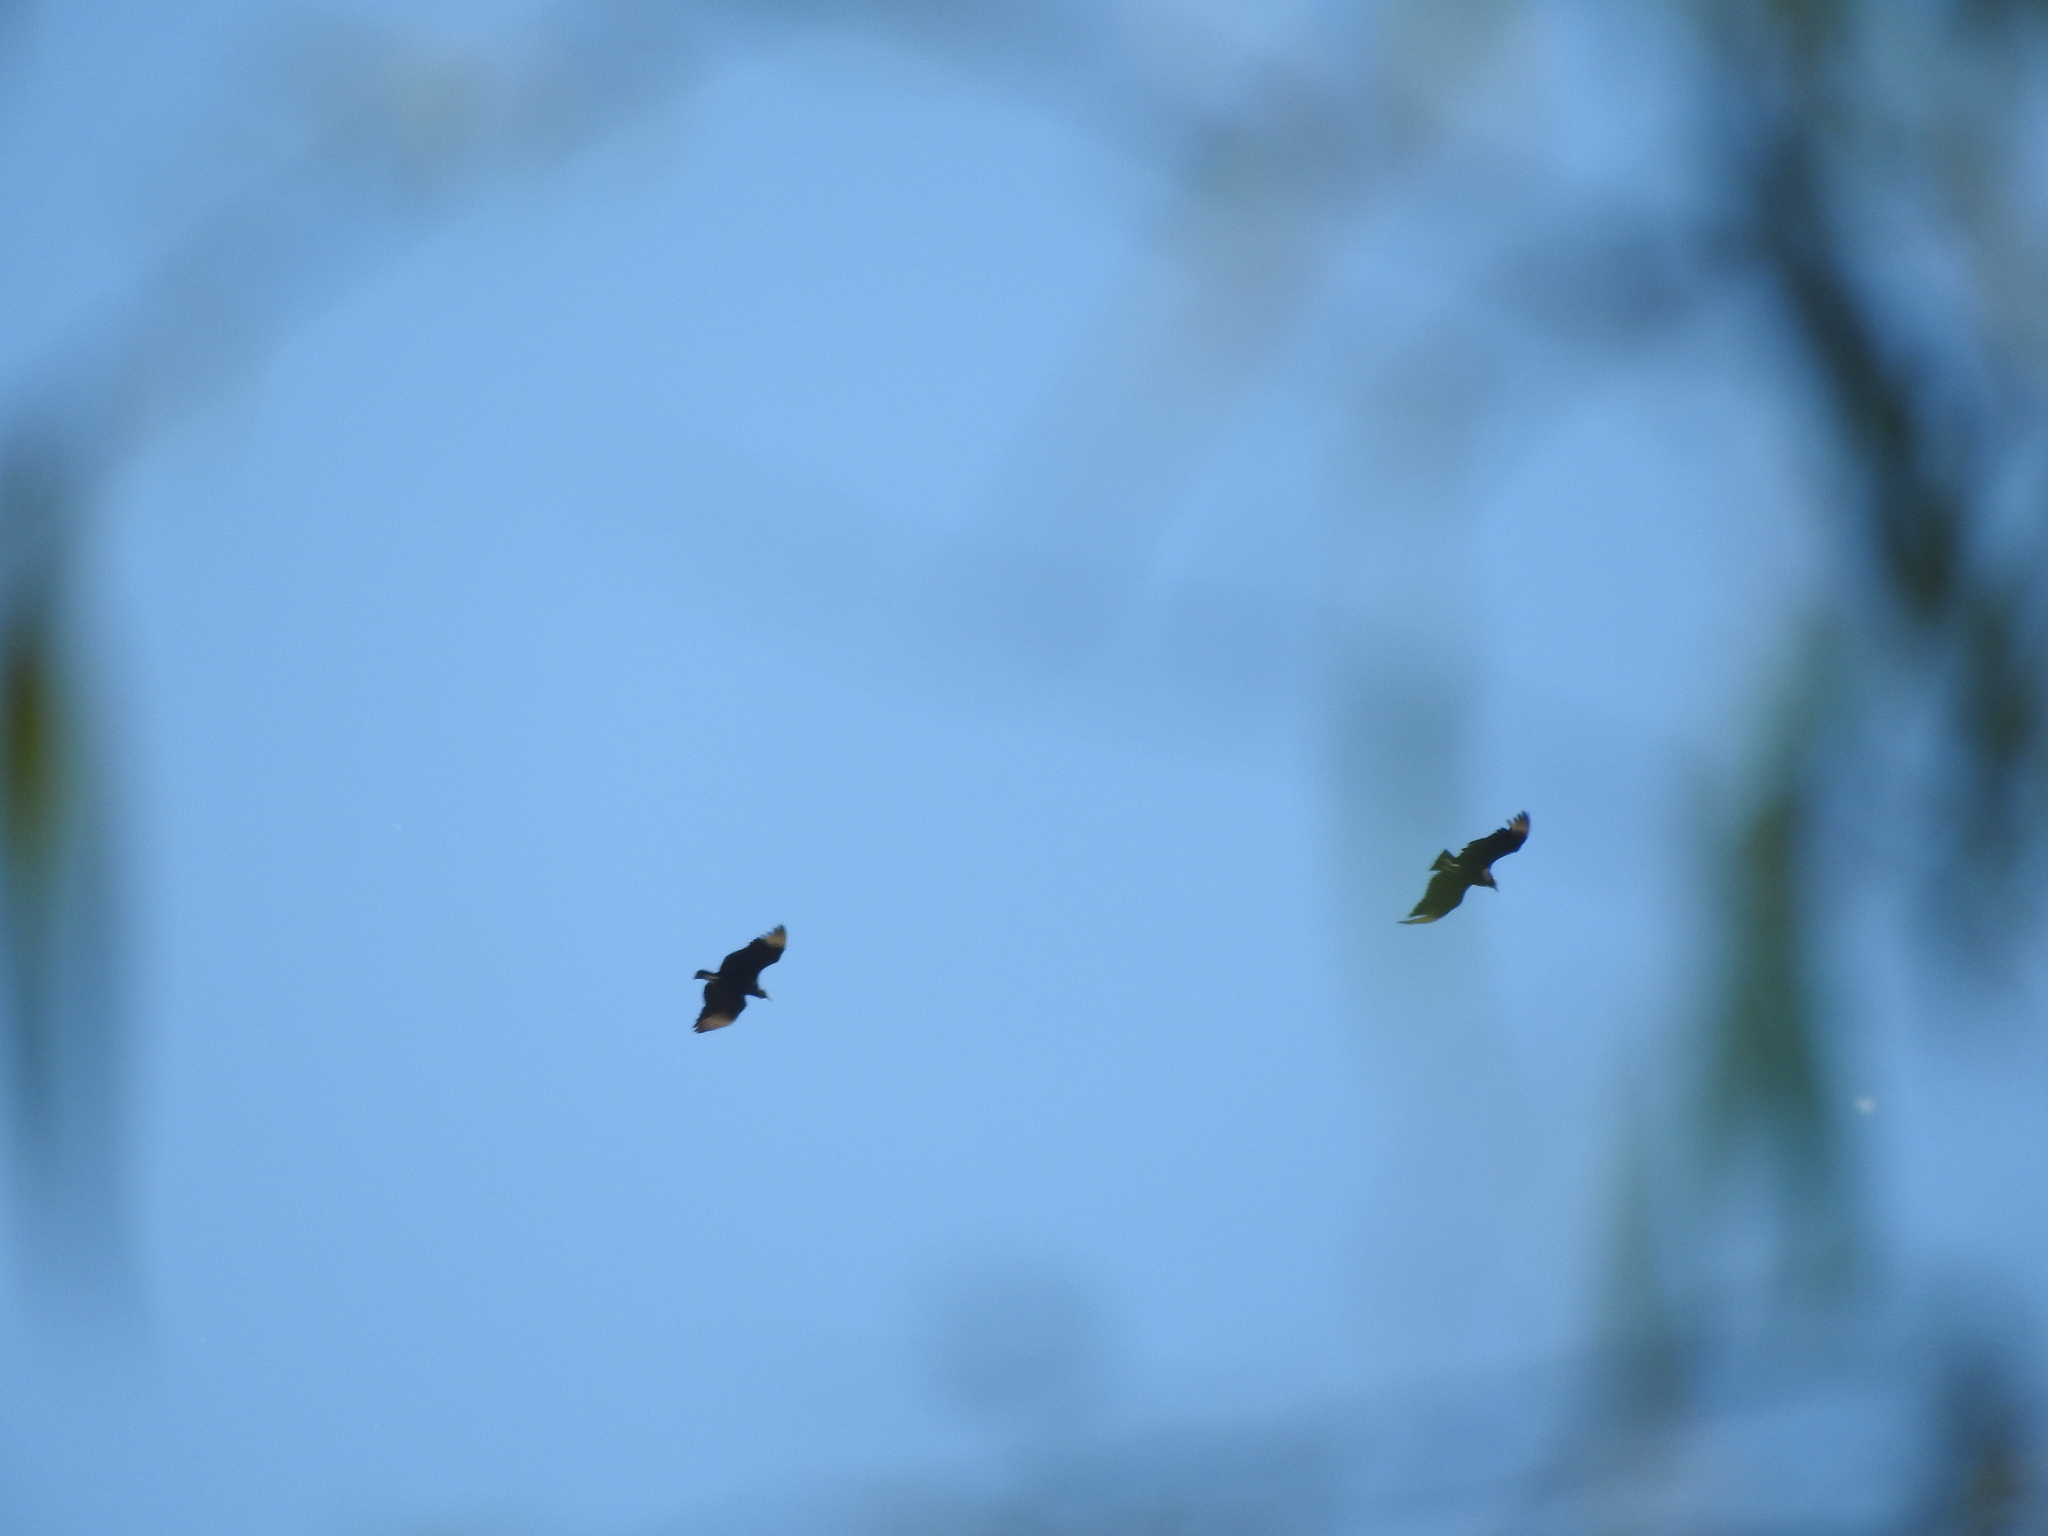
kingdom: Animalia
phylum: Chordata
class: Aves
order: Accipitriformes
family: Cathartidae
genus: Coragyps
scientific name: Coragyps atratus
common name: Black vulture
